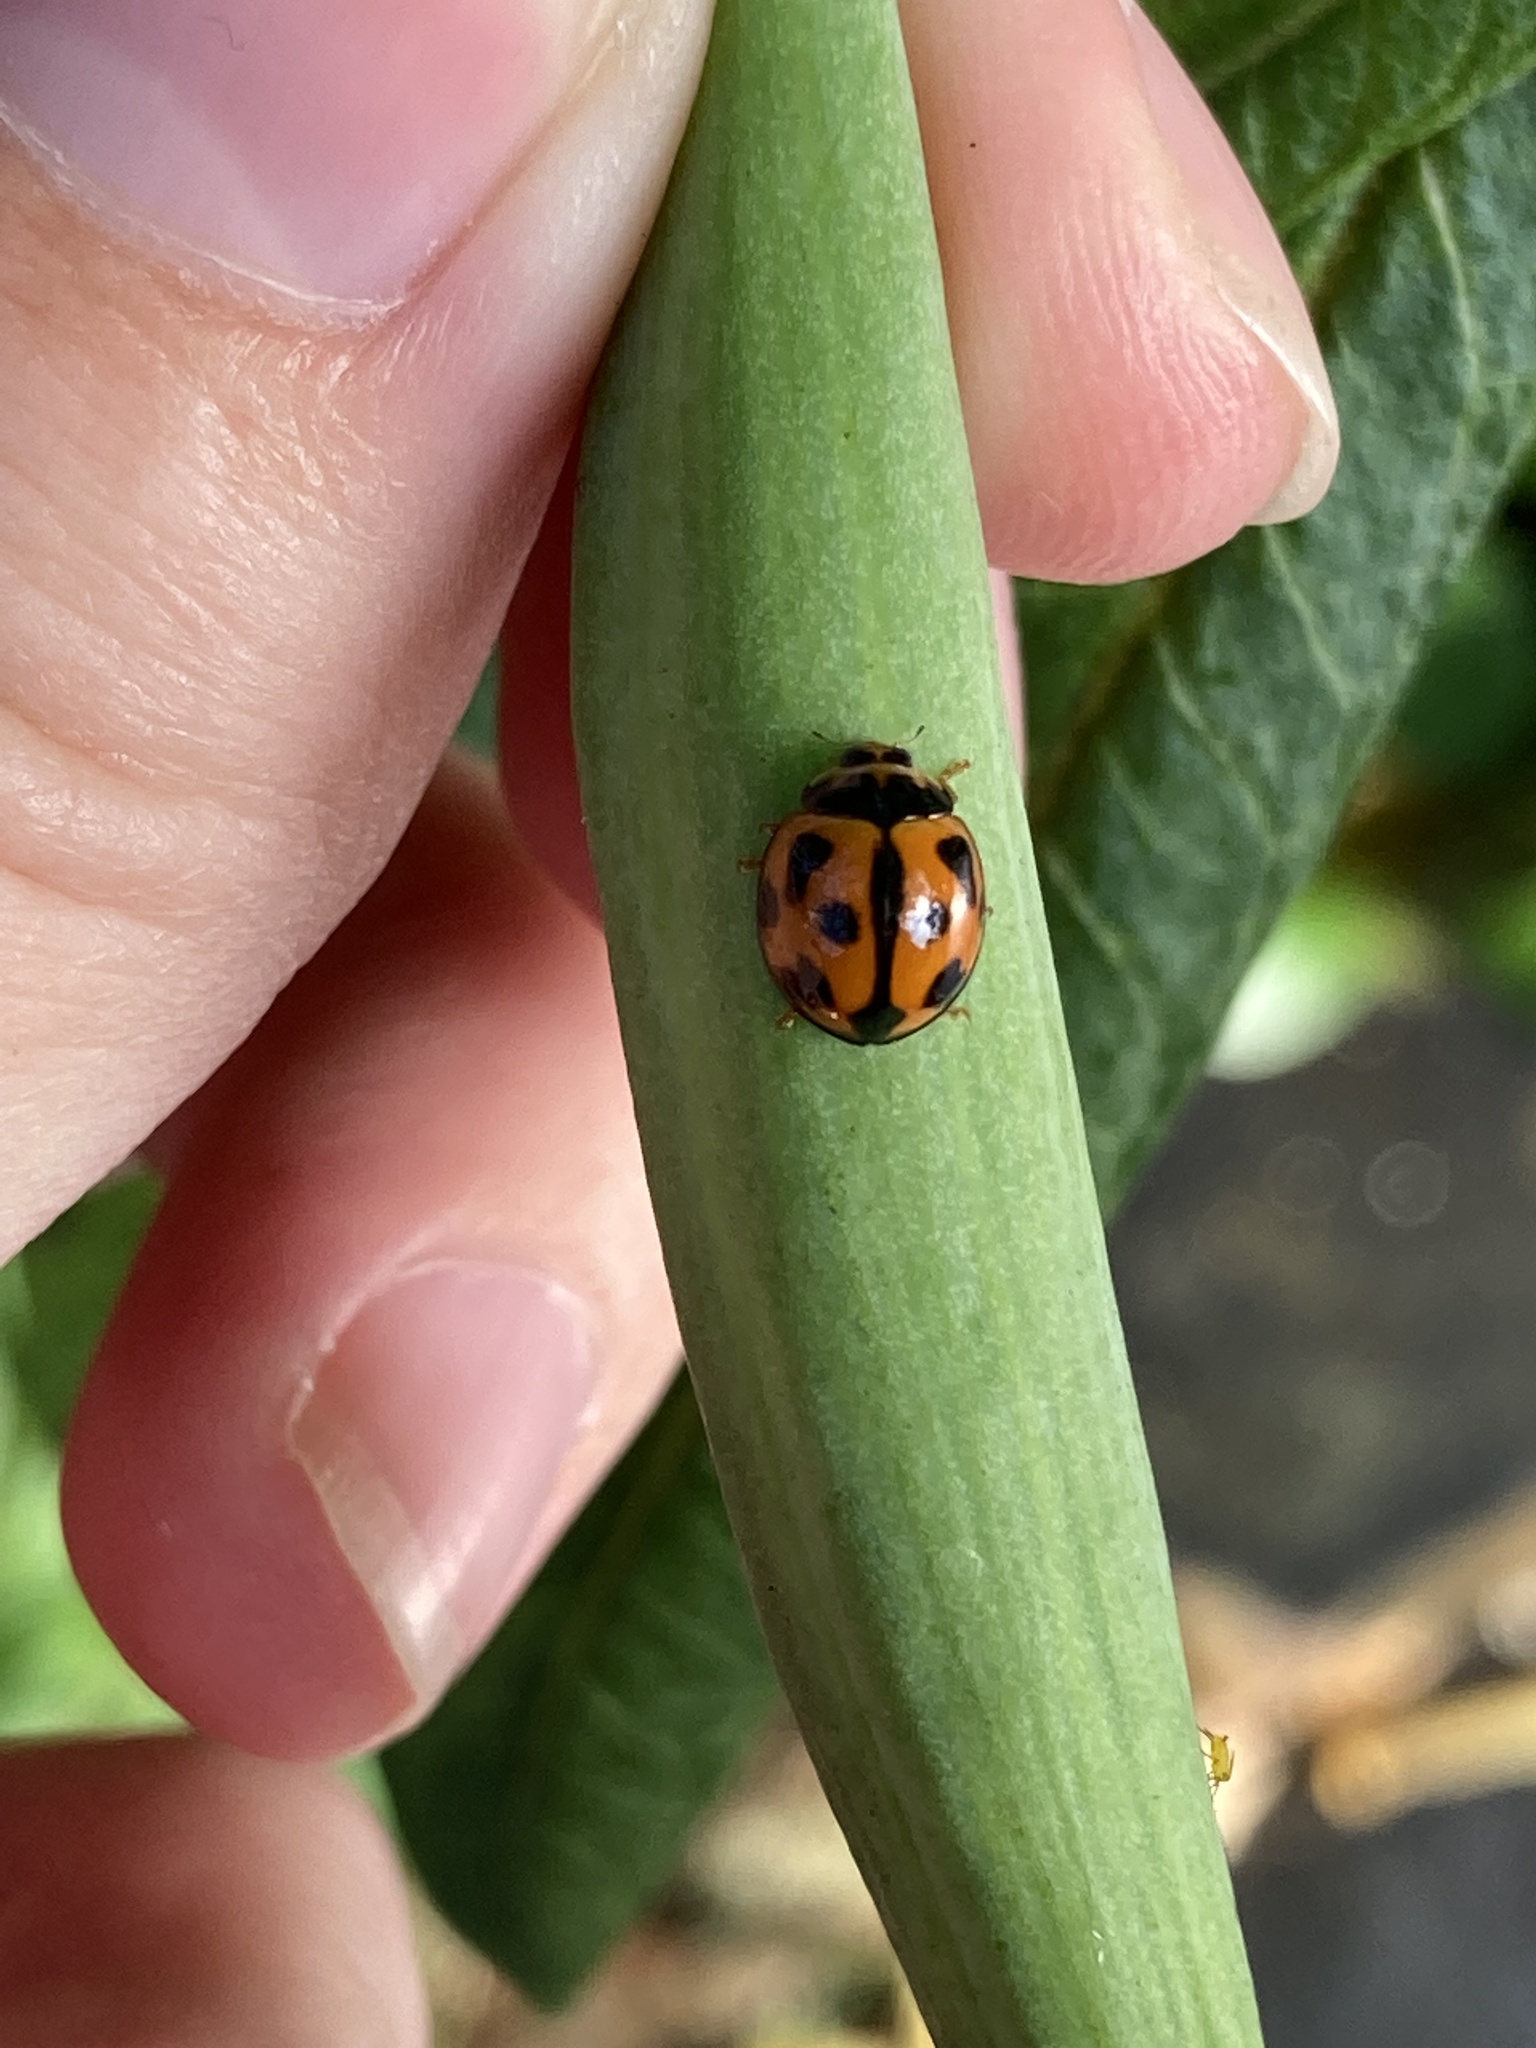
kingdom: Animalia
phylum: Arthropoda
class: Insecta
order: Coleoptera
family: Coccinellidae
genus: Coelophora
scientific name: Coelophora inaequalis
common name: Common australian lady beetle
